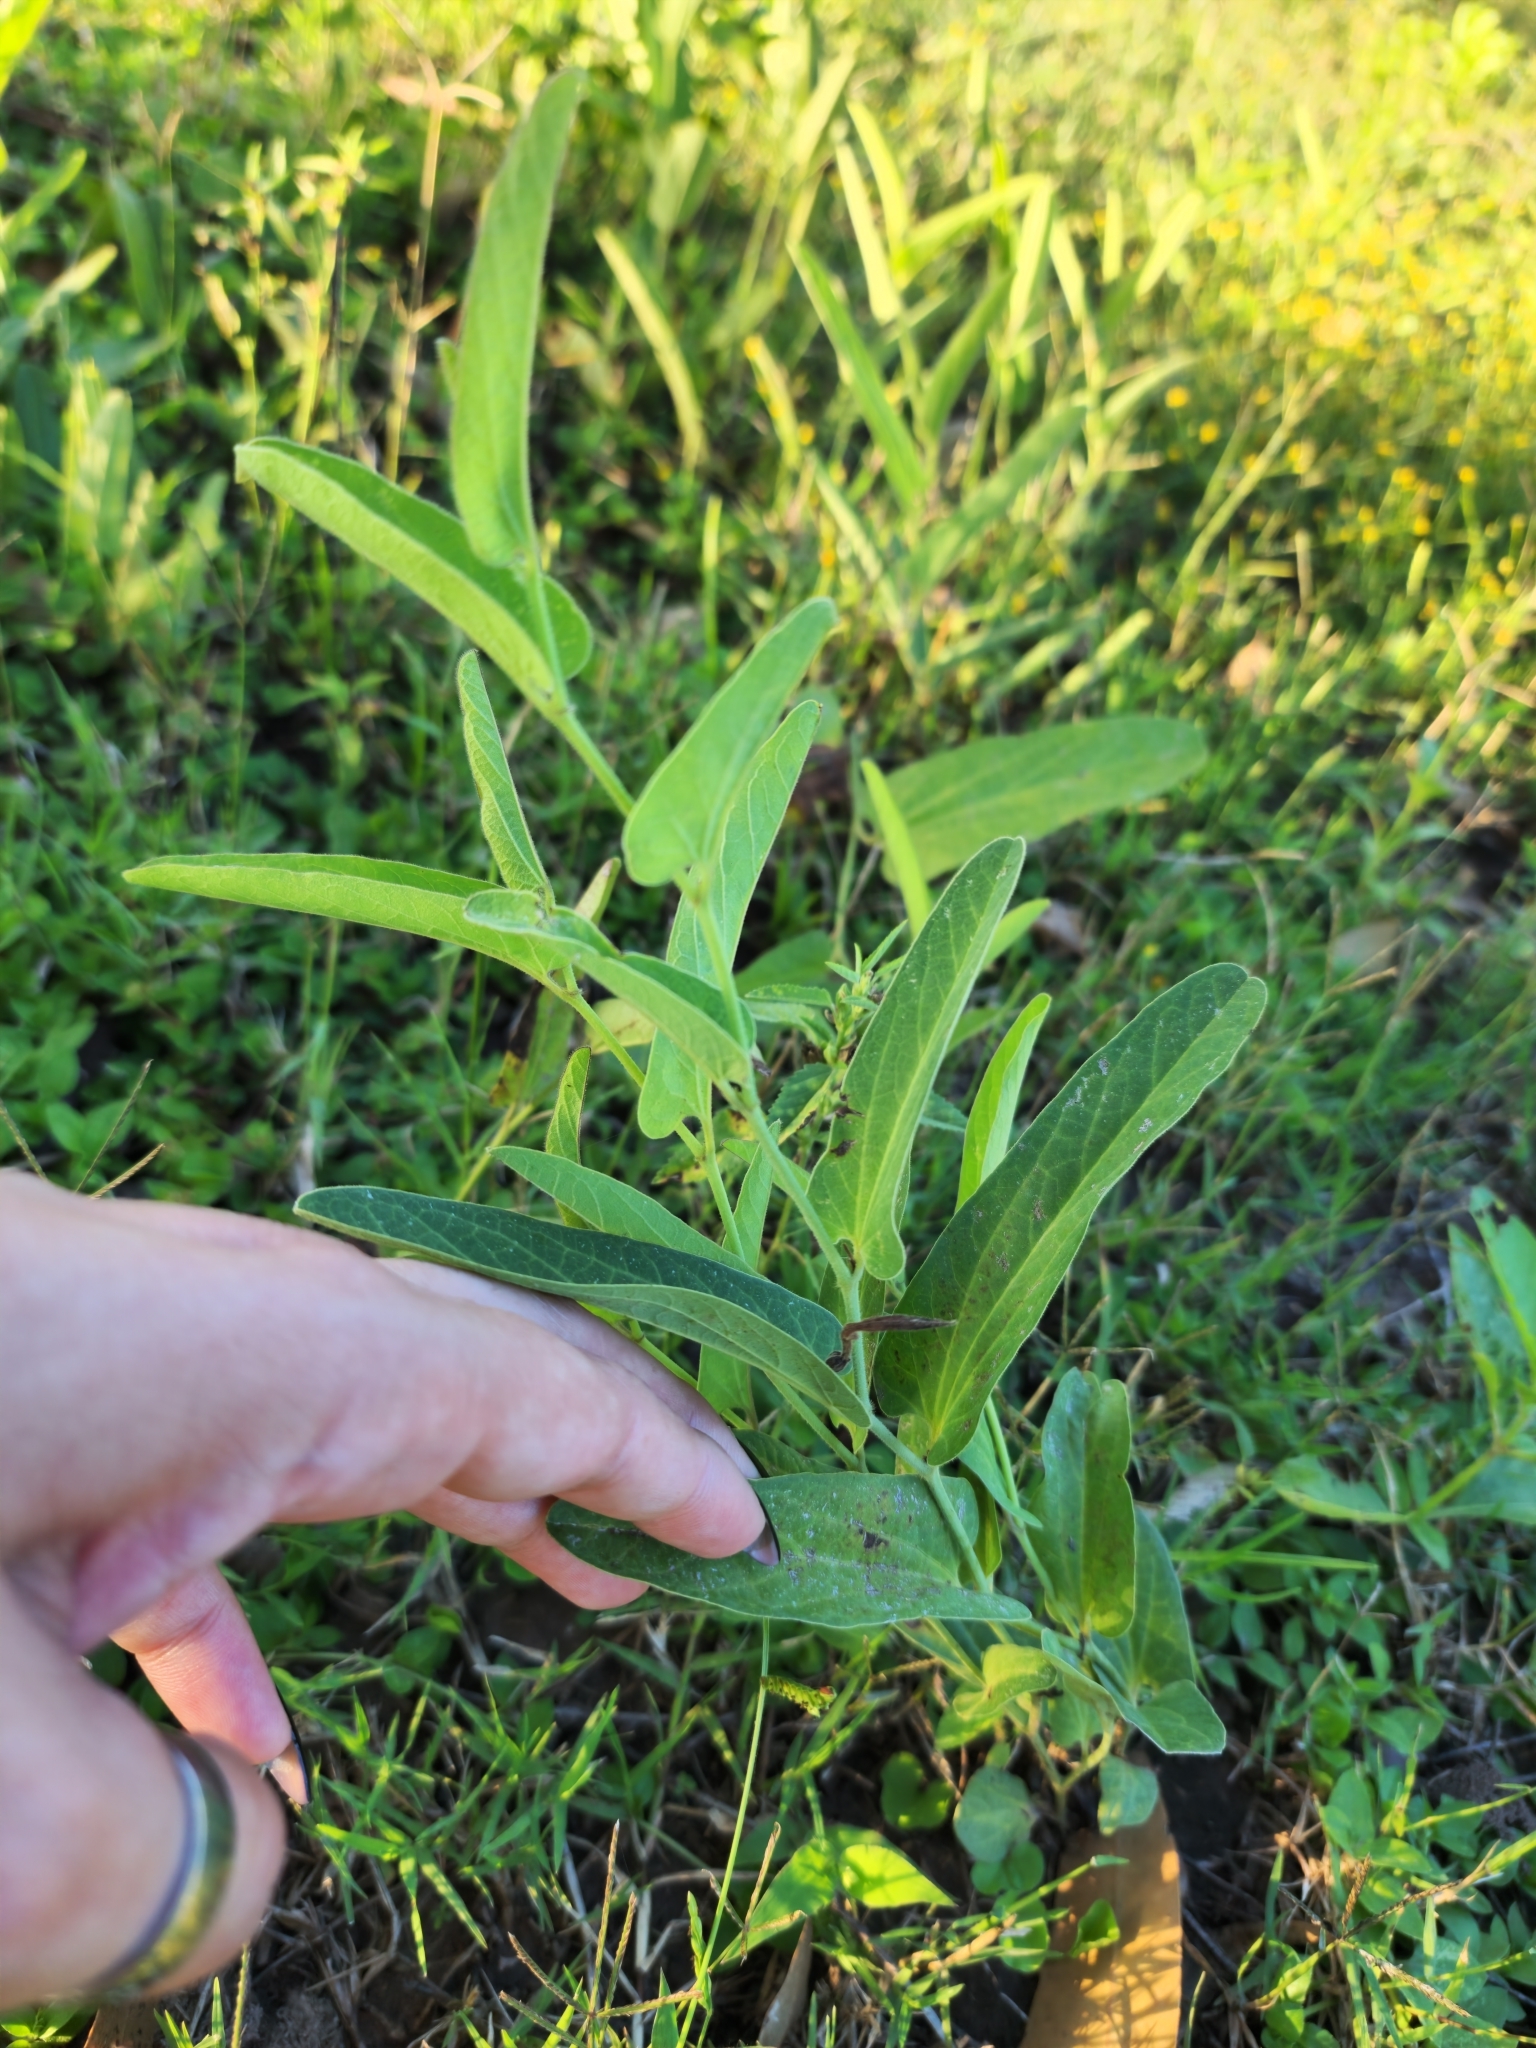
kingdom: Plantae
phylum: Tracheophyta
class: Magnoliopsida
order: Piperales
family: Aristolochiaceae
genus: Aristolochia
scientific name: Aristolochia lingua
